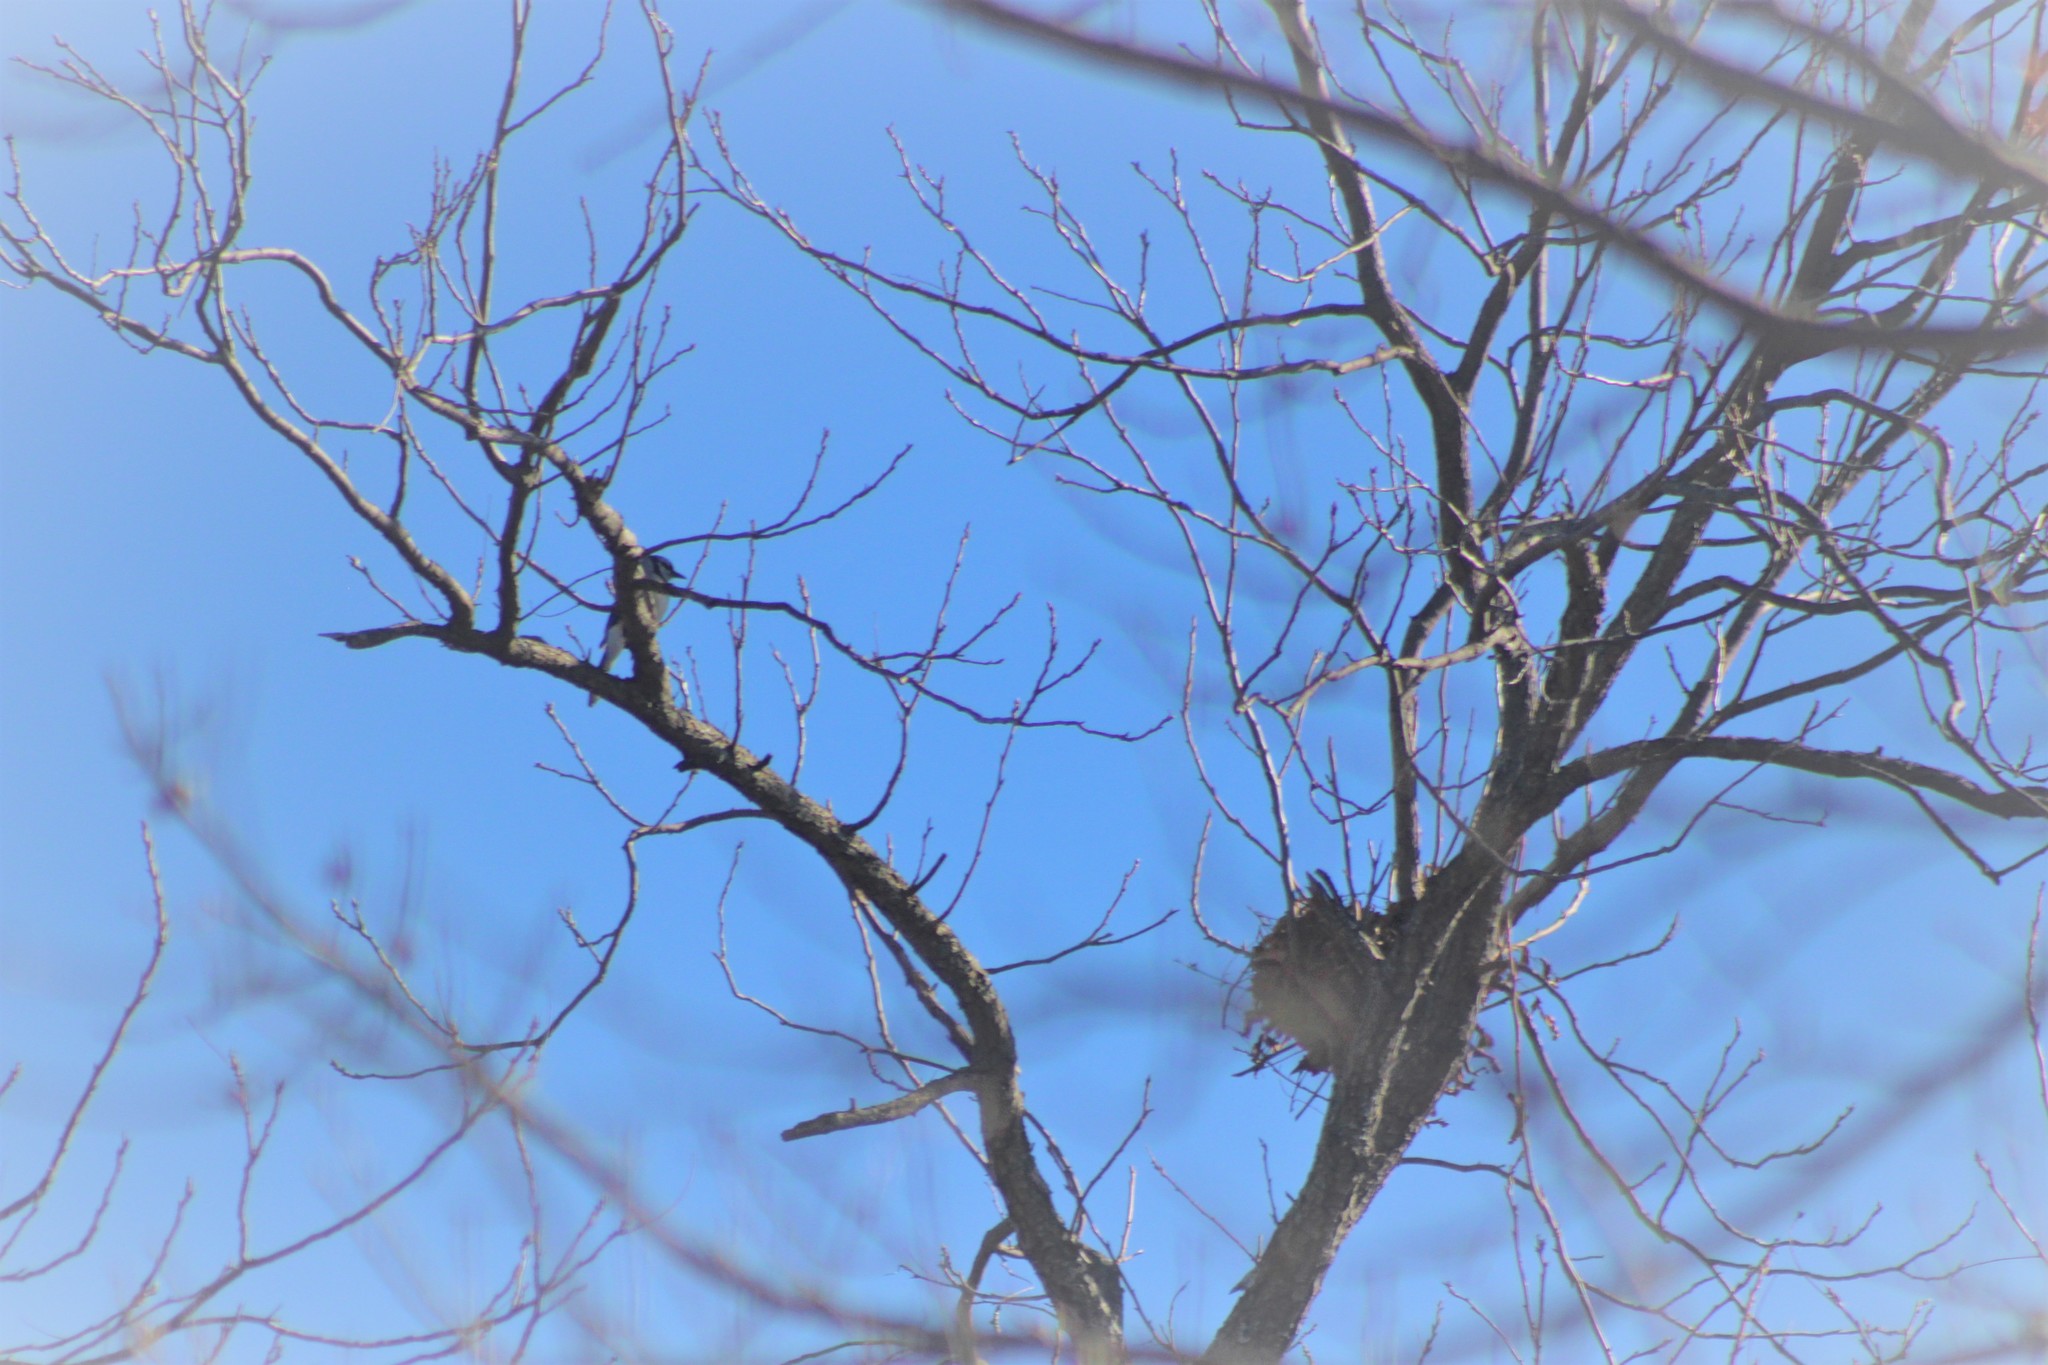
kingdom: Animalia
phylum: Chordata
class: Aves
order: Passeriformes
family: Corvidae
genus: Cyanocitta
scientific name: Cyanocitta cristata
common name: Blue jay
